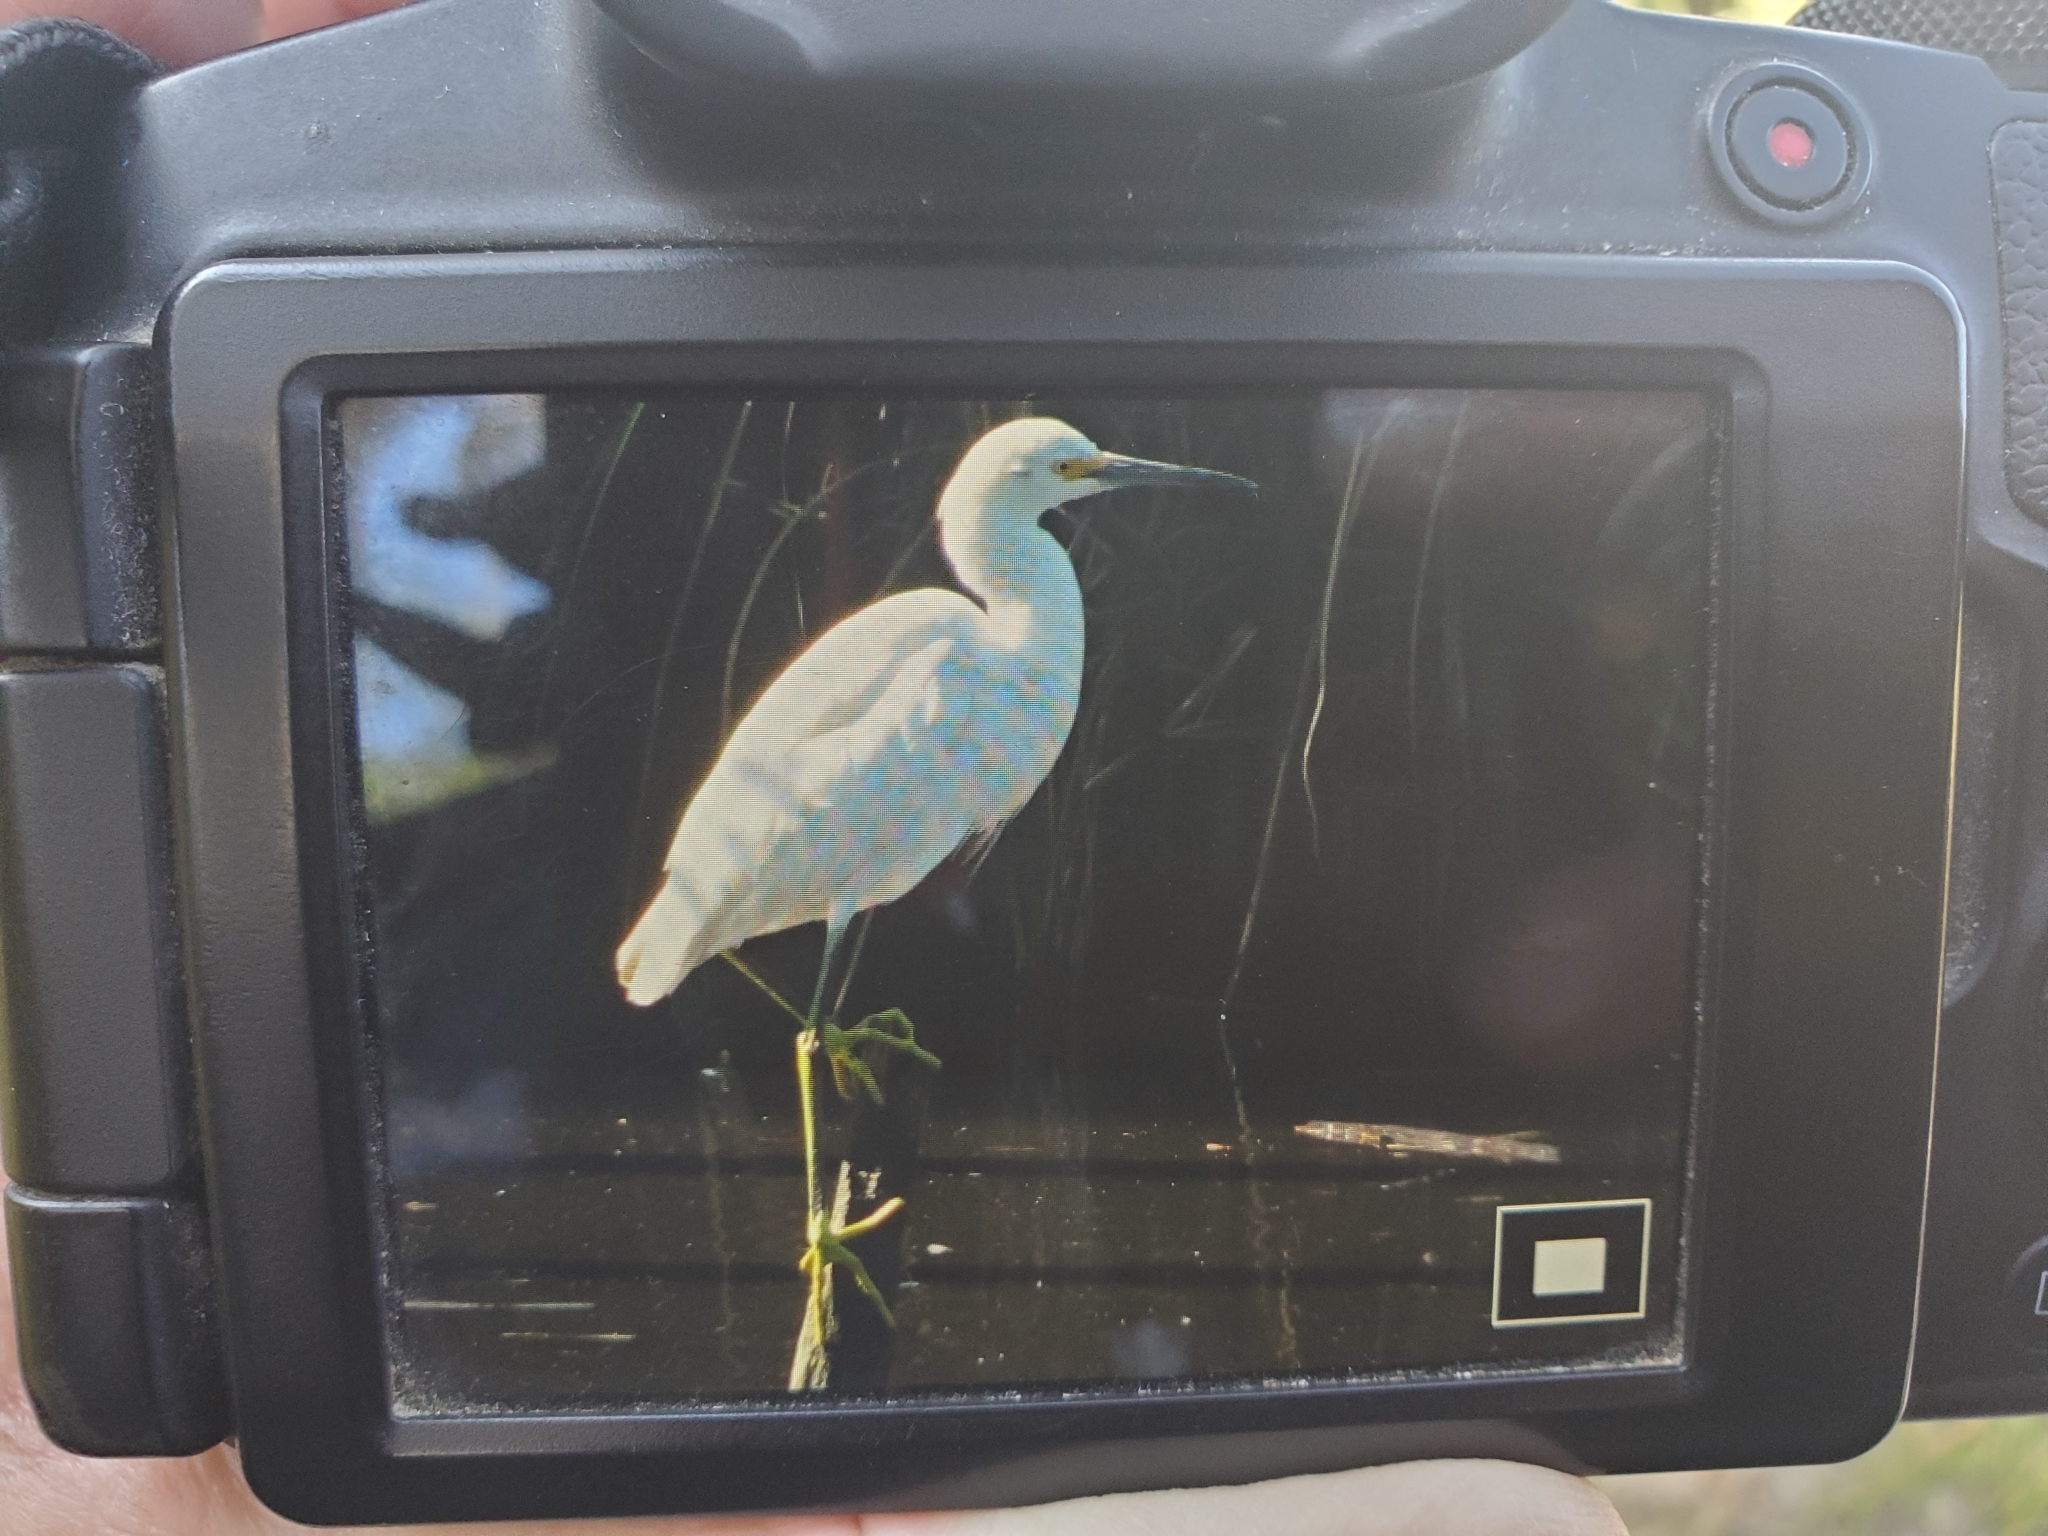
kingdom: Animalia
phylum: Chordata
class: Aves
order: Pelecaniformes
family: Ardeidae
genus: Egretta
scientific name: Egretta thula
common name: Snowy egret
